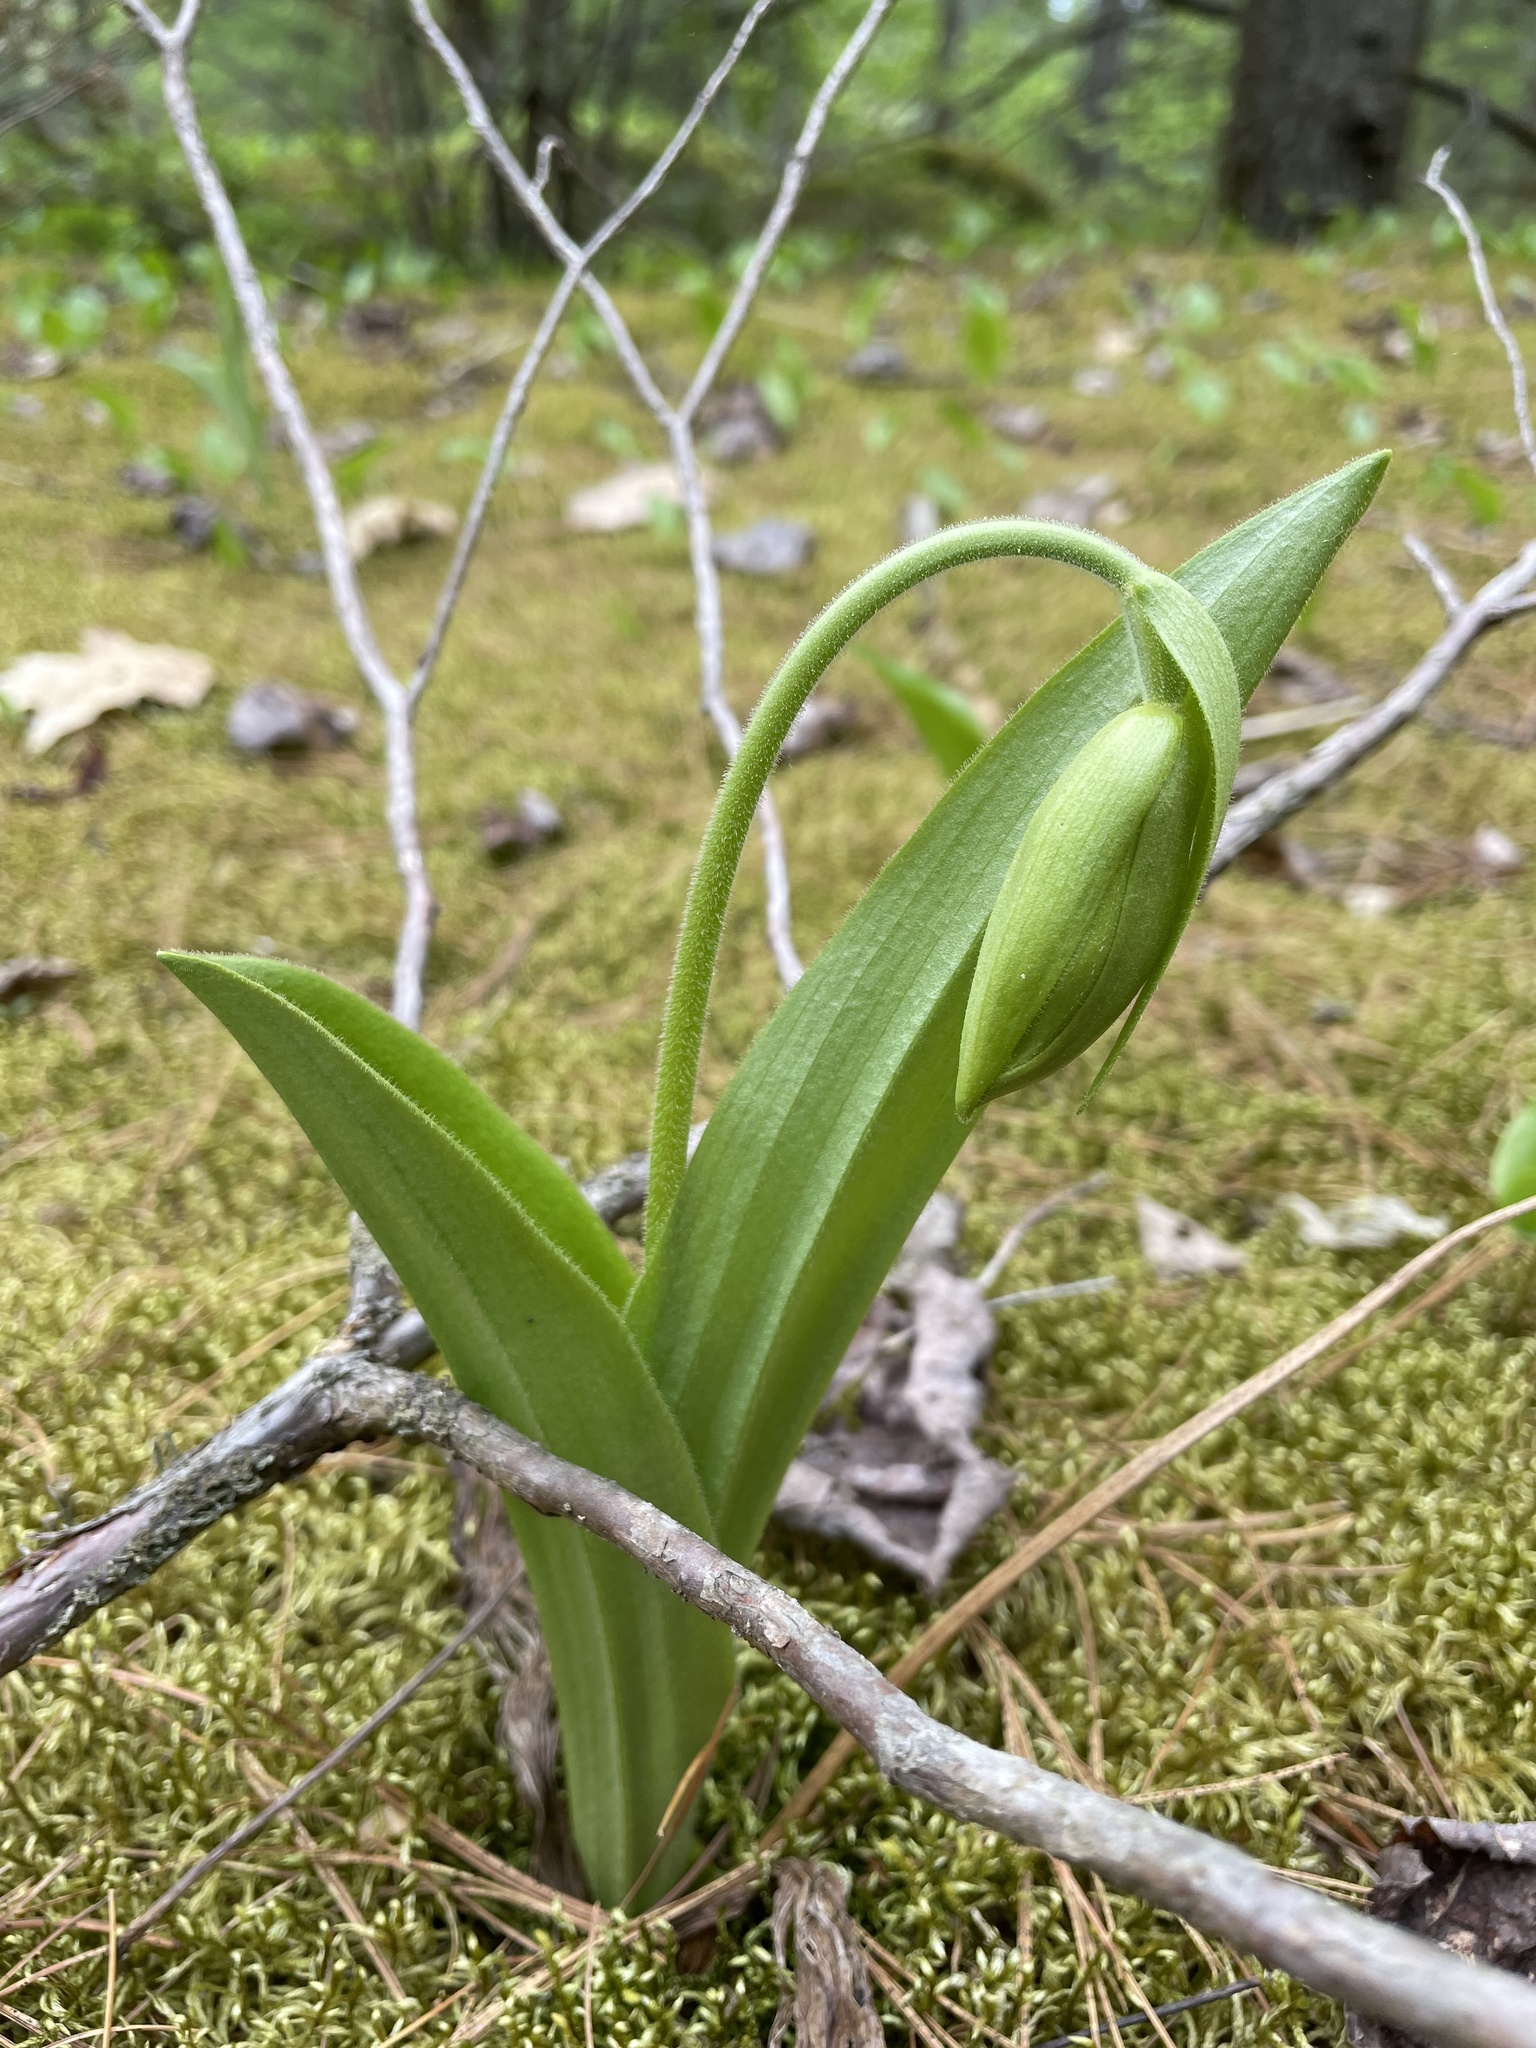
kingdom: Plantae
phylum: Tracheophyta
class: Liliopsida
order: Asparagales
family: Orchidaceae
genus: Cypripedium
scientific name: Cypripedium acaule
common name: Pink lady's-slipper
